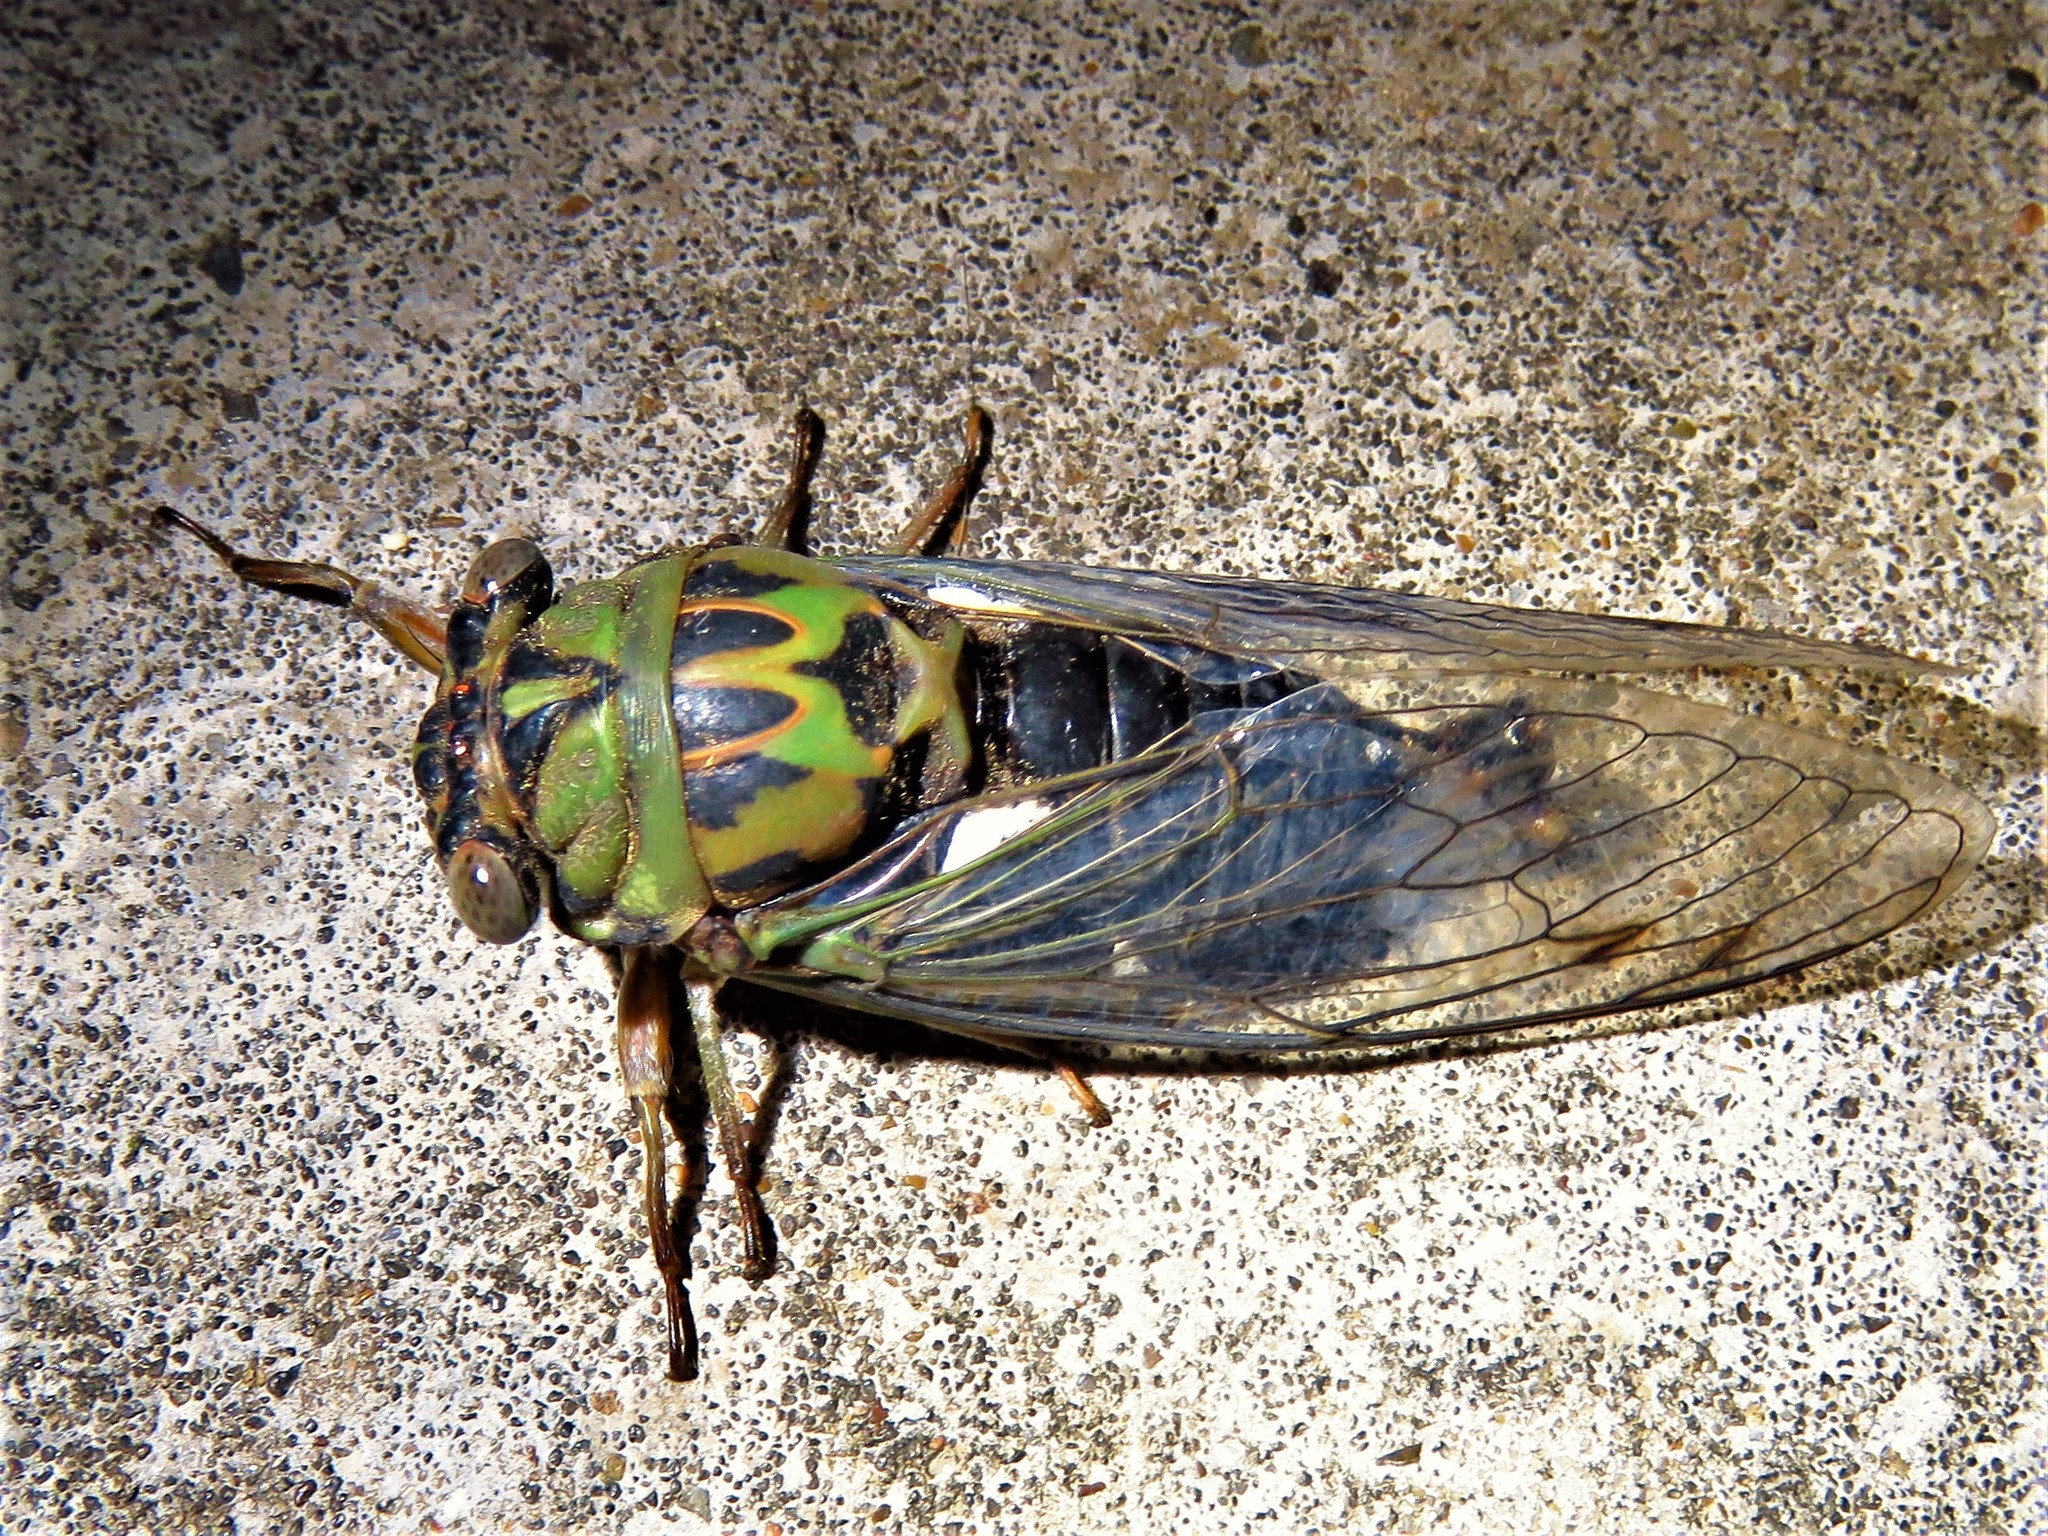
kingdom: Animalia
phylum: Arthropoda
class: Insecta
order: Hemiptera
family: Cicadidae
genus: Neotibicen
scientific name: Neotibicen pruinosus
